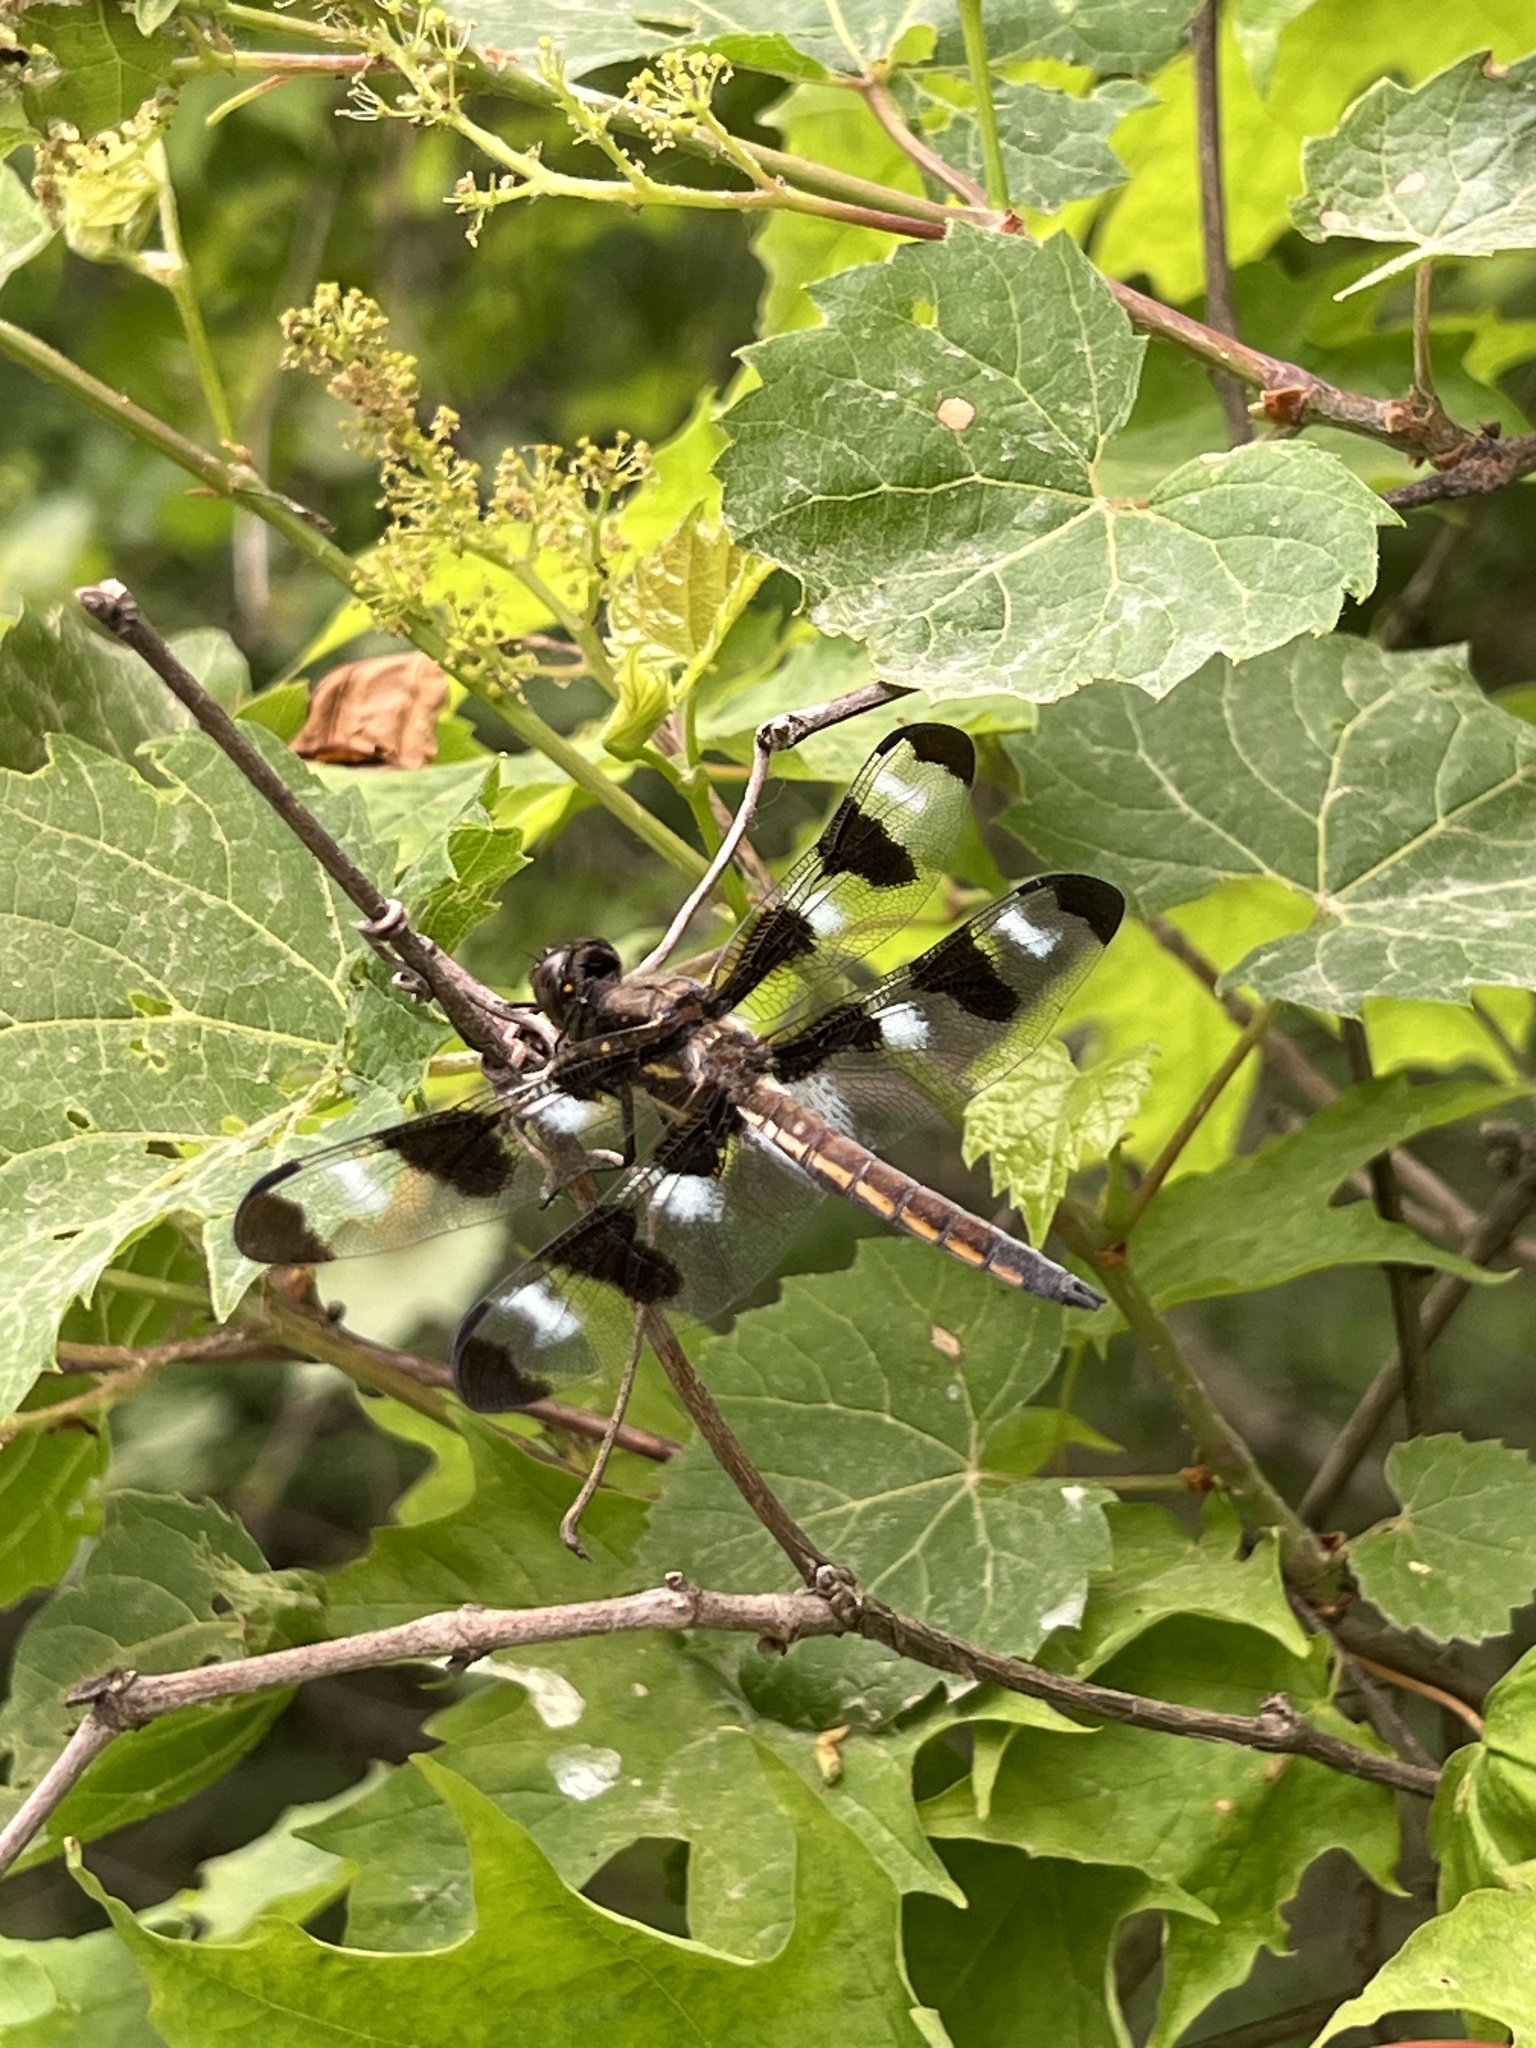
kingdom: Animalia
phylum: Arthropoda
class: Insecta
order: Odonata
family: Libellulidae
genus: Libellula
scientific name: Libellula pulchella
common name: Twelve-spotted skimmer
